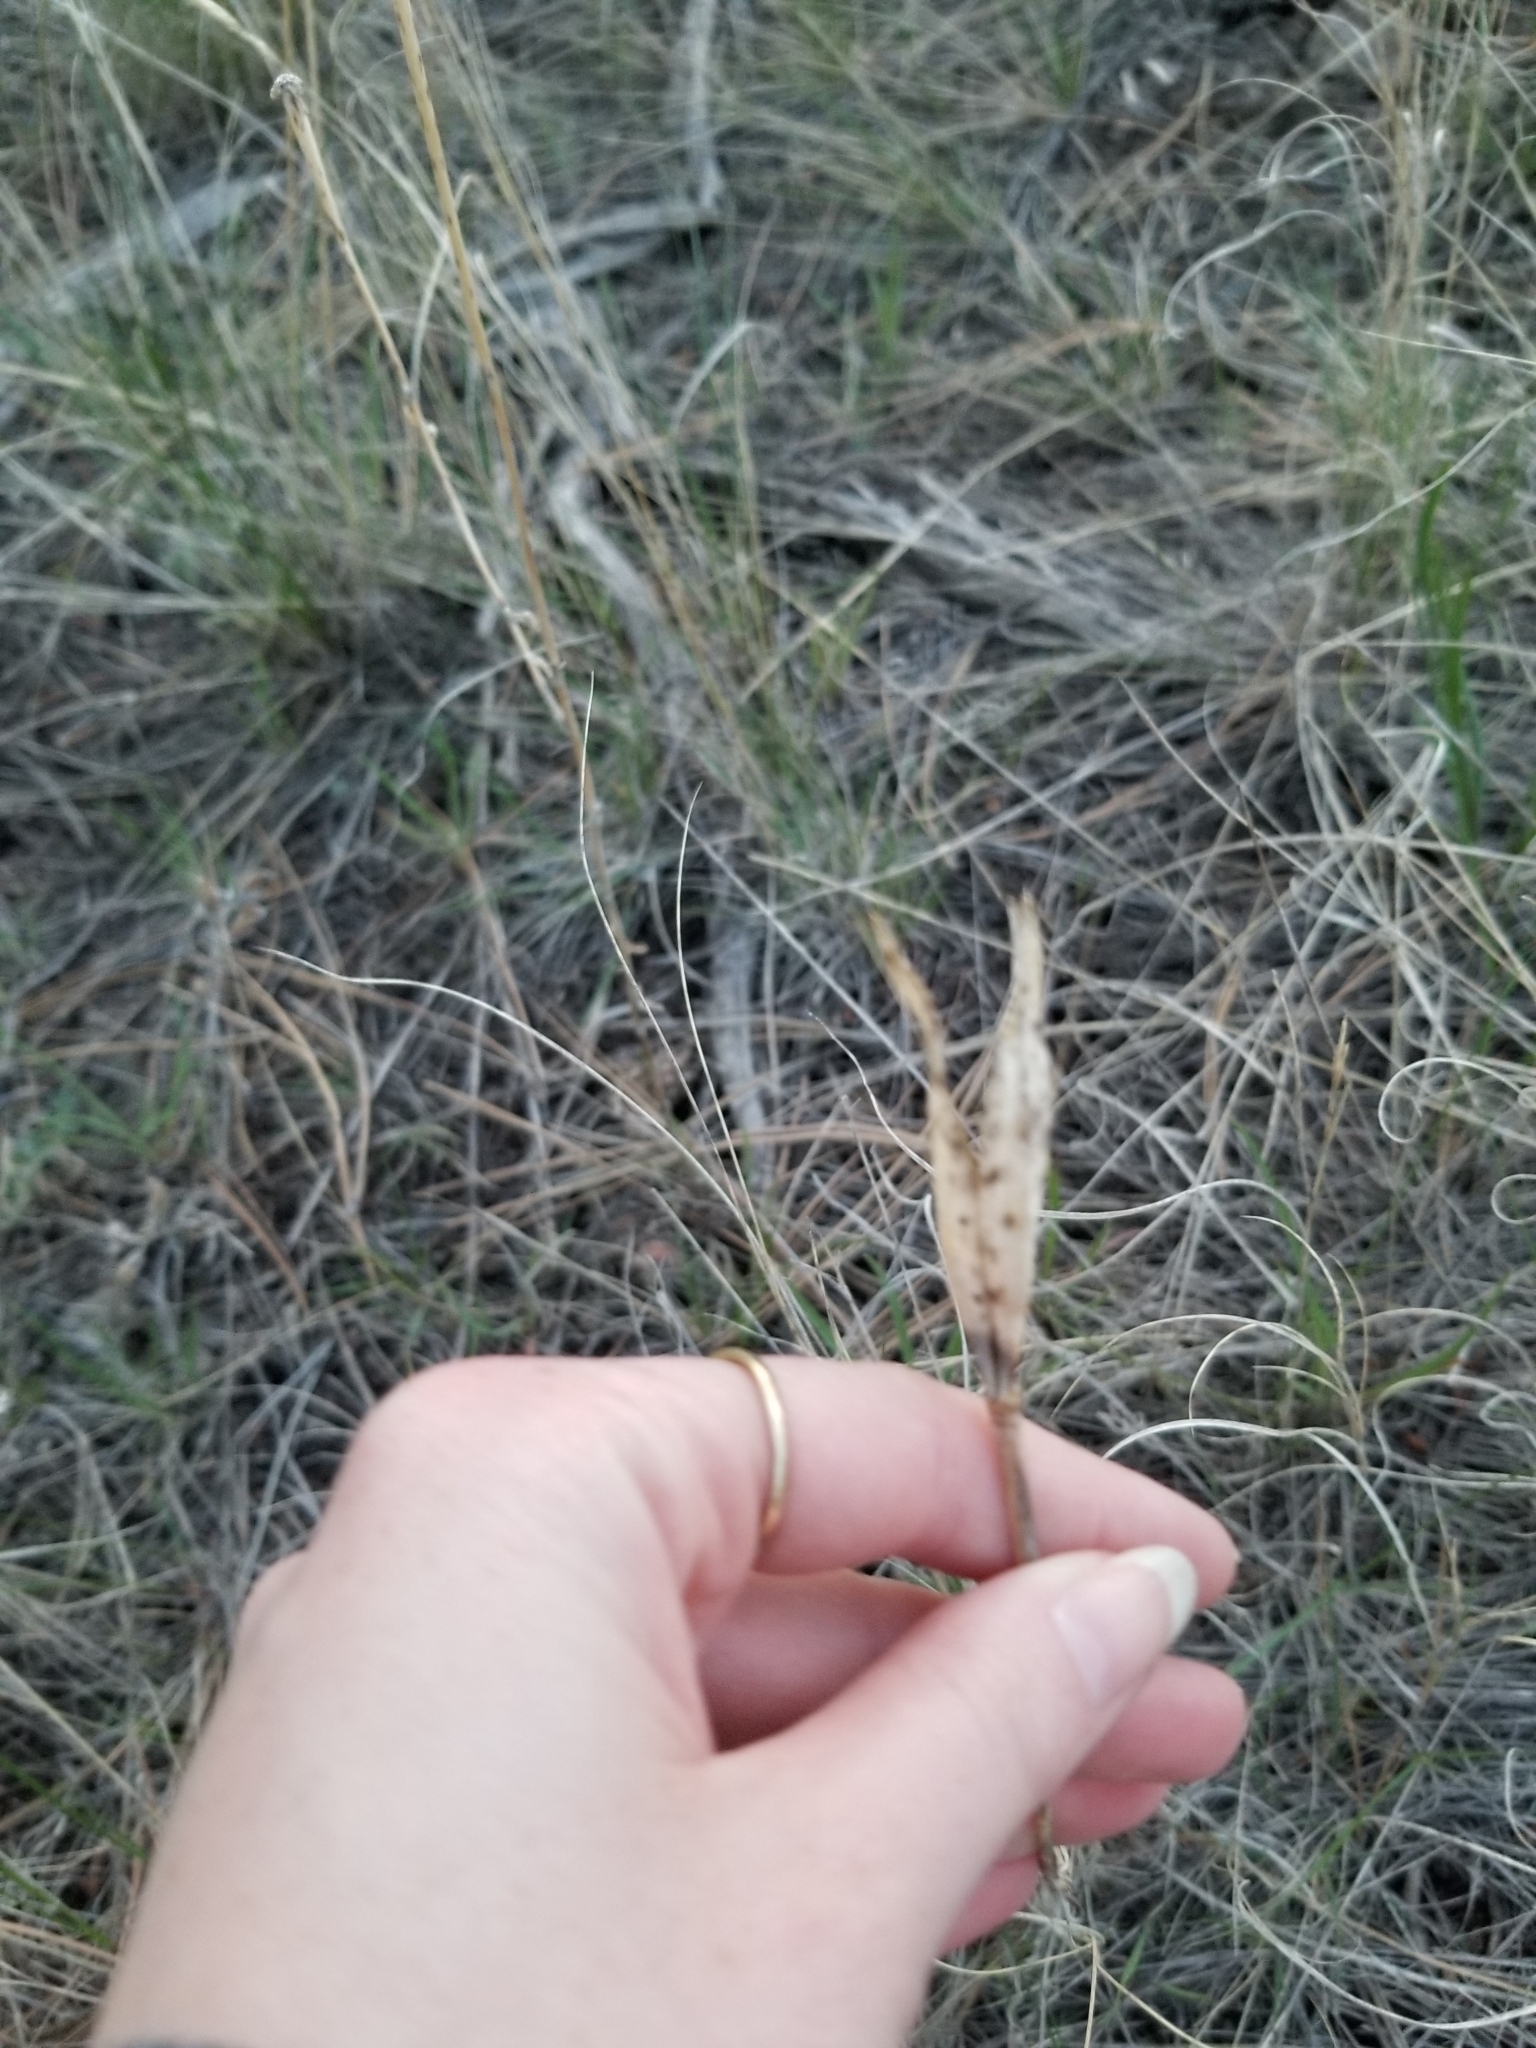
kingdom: Plantae
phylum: Tracheophyta
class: Liliopsida
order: Liliales
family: Liliaceae
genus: Calochortus
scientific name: Calochortus macrocarpus
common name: Green-band mariposa lily
